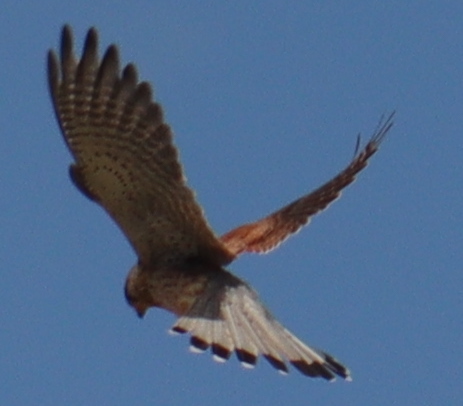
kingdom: Animalia
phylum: Chordata
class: Aves
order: Falconiformes
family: Falconidae
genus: Falco
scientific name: Falco tinnunculus
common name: Common kestrel
